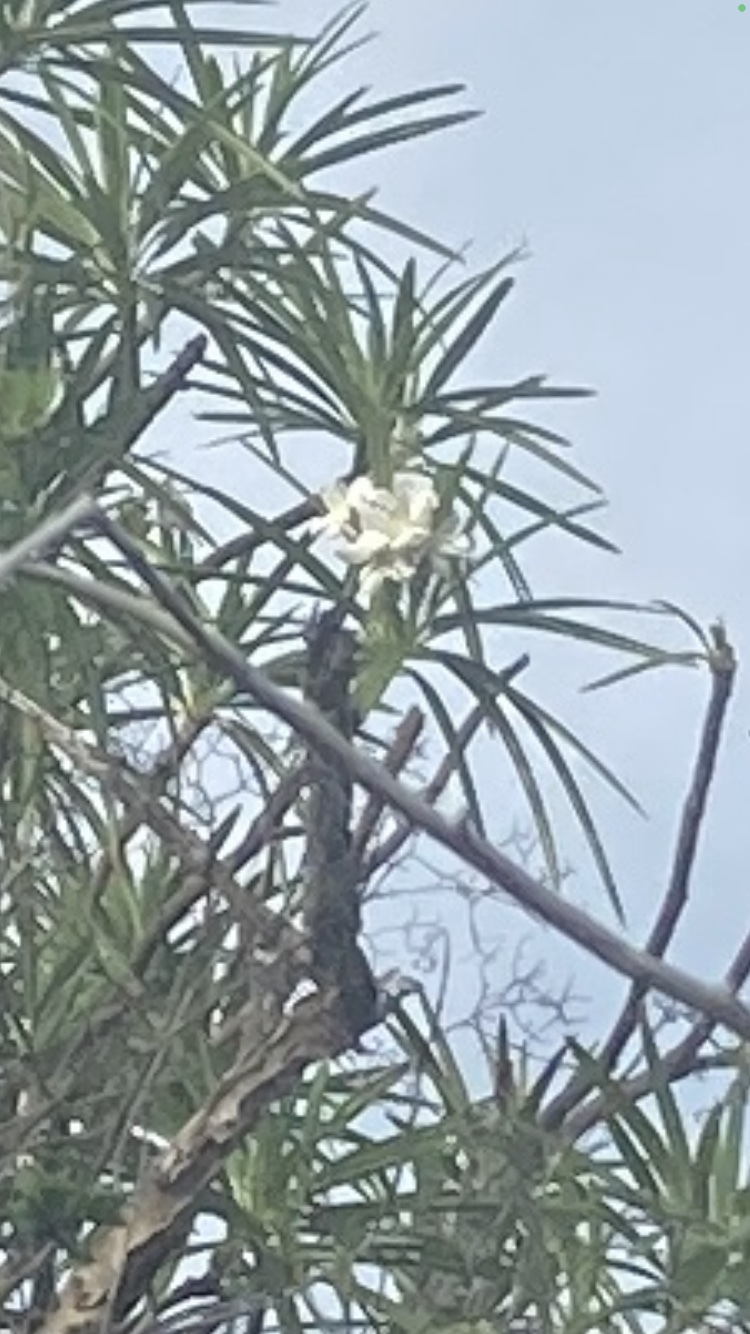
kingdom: Plantae
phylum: Tracheophyta
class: Magnoliopsida
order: Gentianales
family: Apocynaceae
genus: Plumeria
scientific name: Plumeria alba
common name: Wild frangipani
